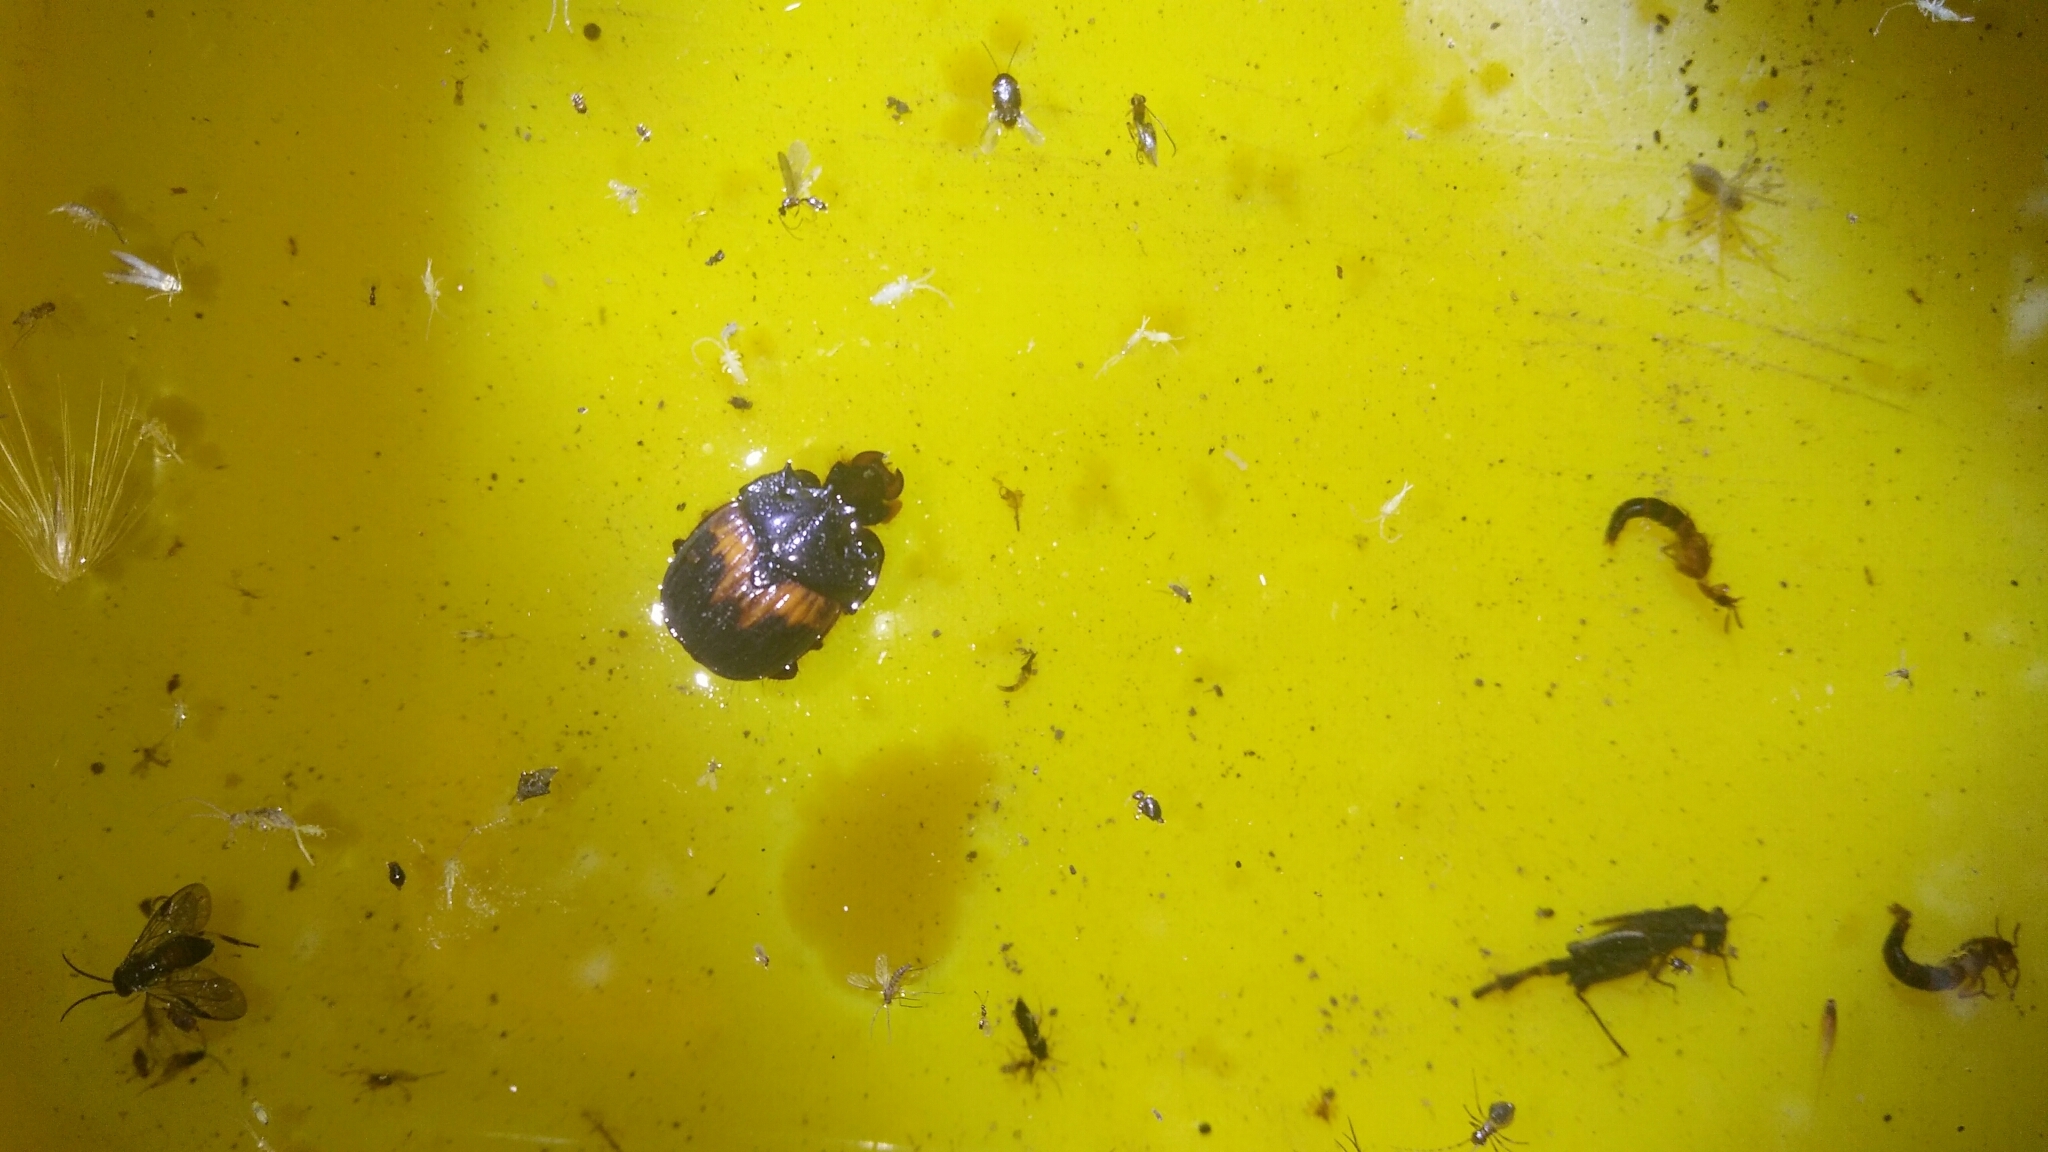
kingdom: Animalia
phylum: Arthropoda
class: Insecta
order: Coleoptera
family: Geotrupidae
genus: Bolbocerodema
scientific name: Bolbocerodema garritor
